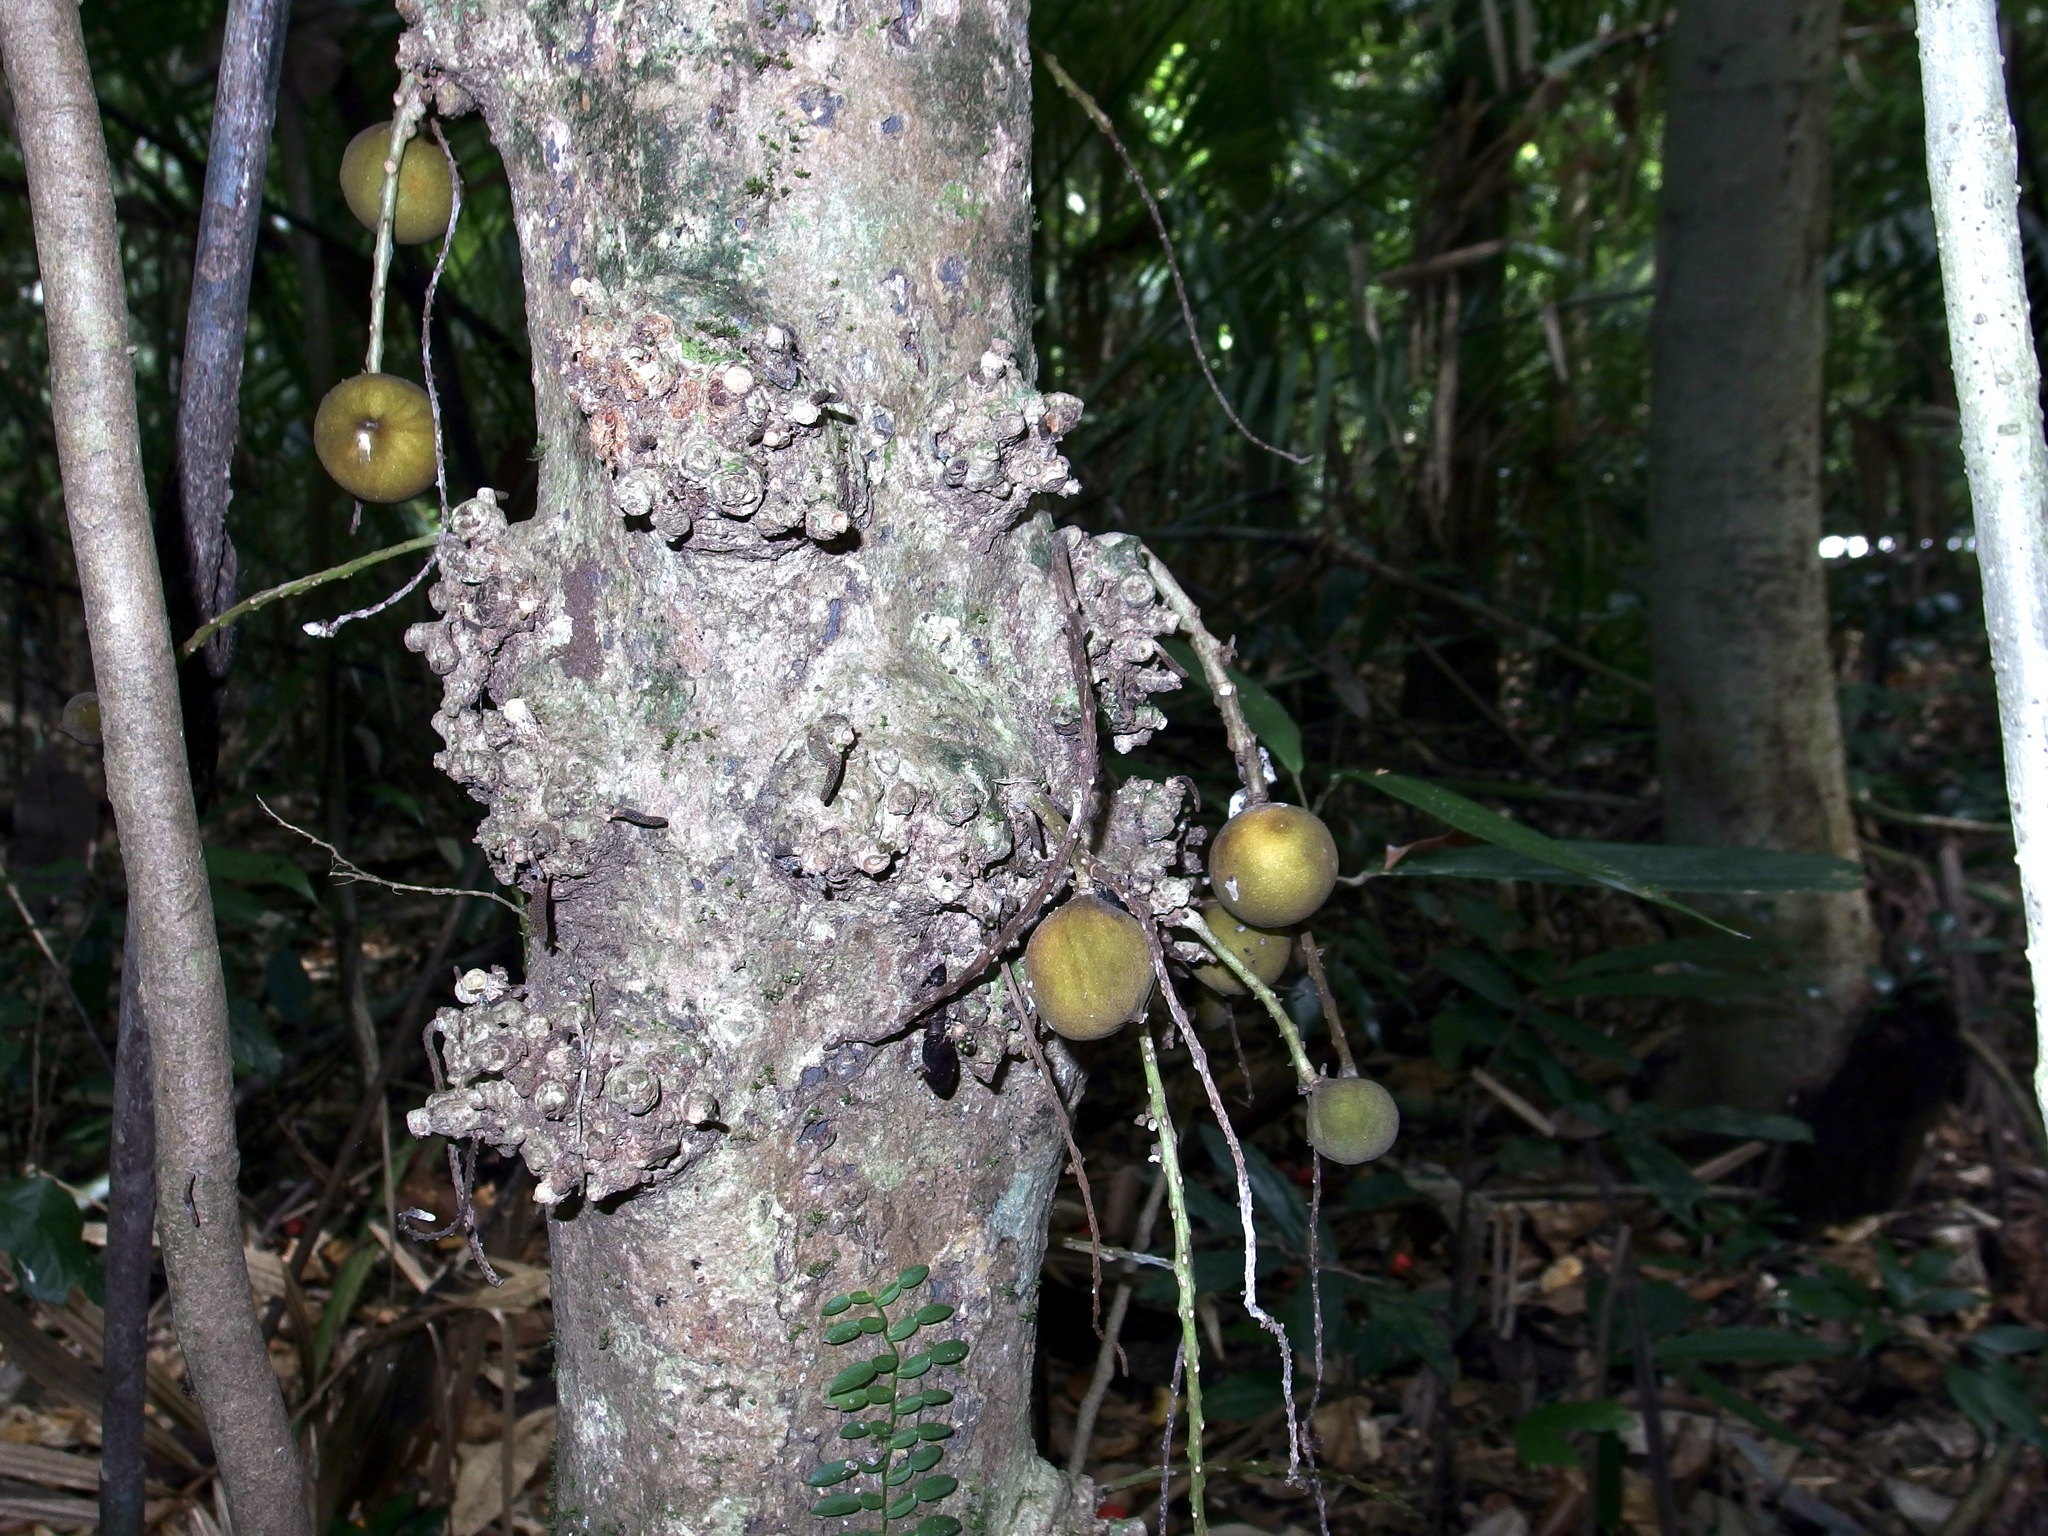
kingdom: Plantae
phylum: Tracheophyta
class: Magnoliopsida
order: Malpighiales
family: Achariaceae
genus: Ryparosa
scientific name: Ryparosa kurrangii
